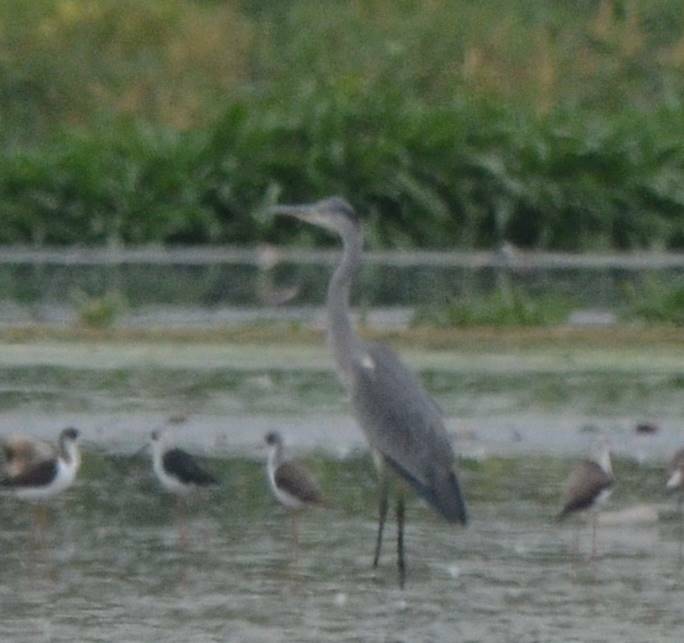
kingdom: Animalia
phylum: Chordata
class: Aves
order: Pelecaniformes
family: Ardeidae
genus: Ardea
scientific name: Ardea cinerea
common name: Grey heron
